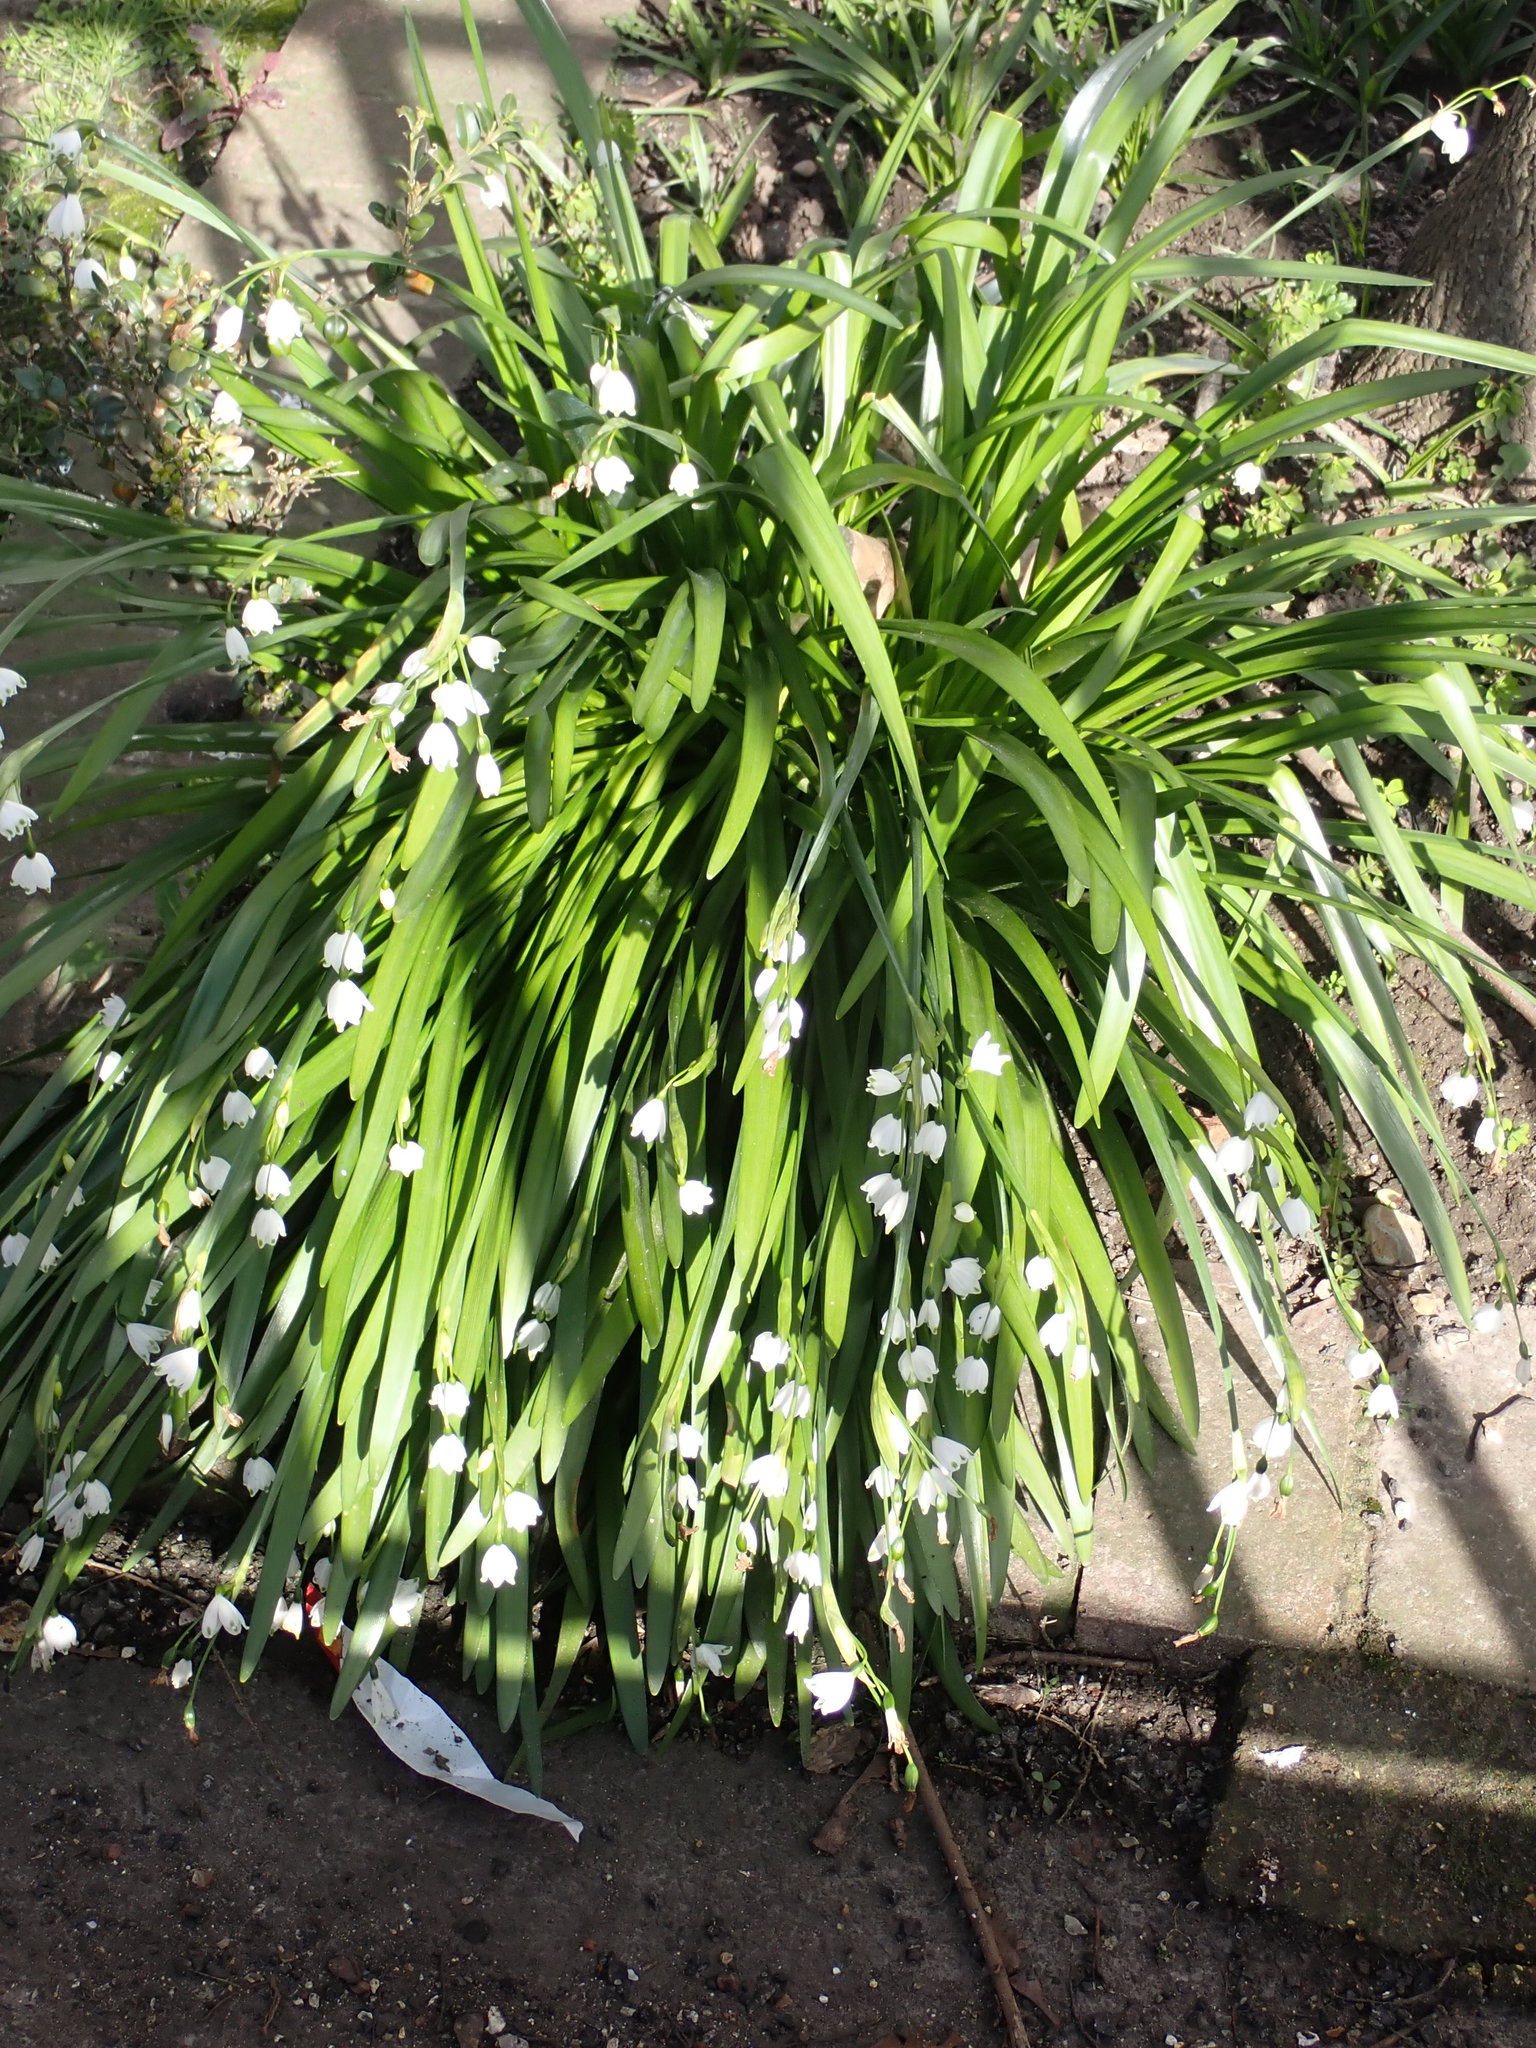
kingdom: Plantae
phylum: Tracheophyta
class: Liliopsida
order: Asparagales
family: Amaryllidaceae
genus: Leucojum
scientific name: Leucojum aestivum
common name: Summer snowflake
